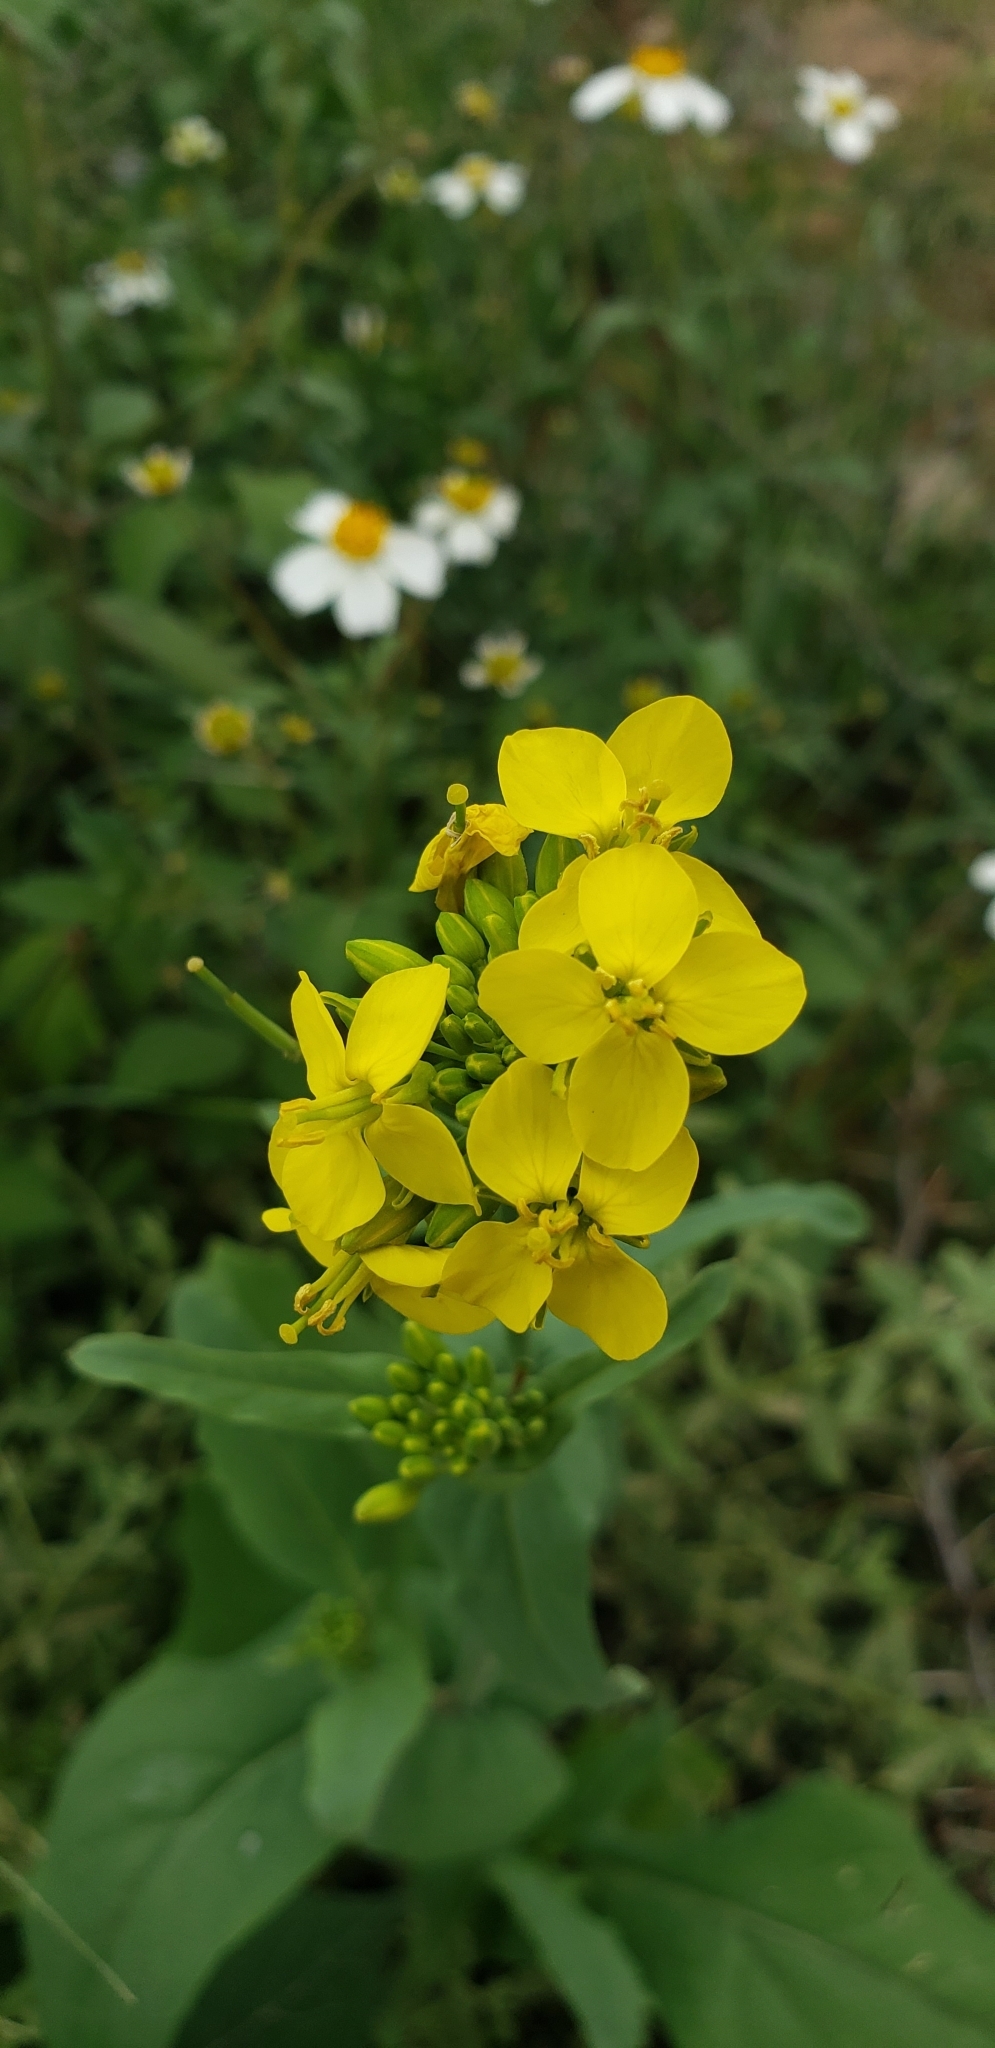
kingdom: Plantae
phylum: Tracheophyta
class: Magnoliopsida
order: Brassicales
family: Brassicaceae
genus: Brassica
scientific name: Brassica rapa
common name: Field mustard
